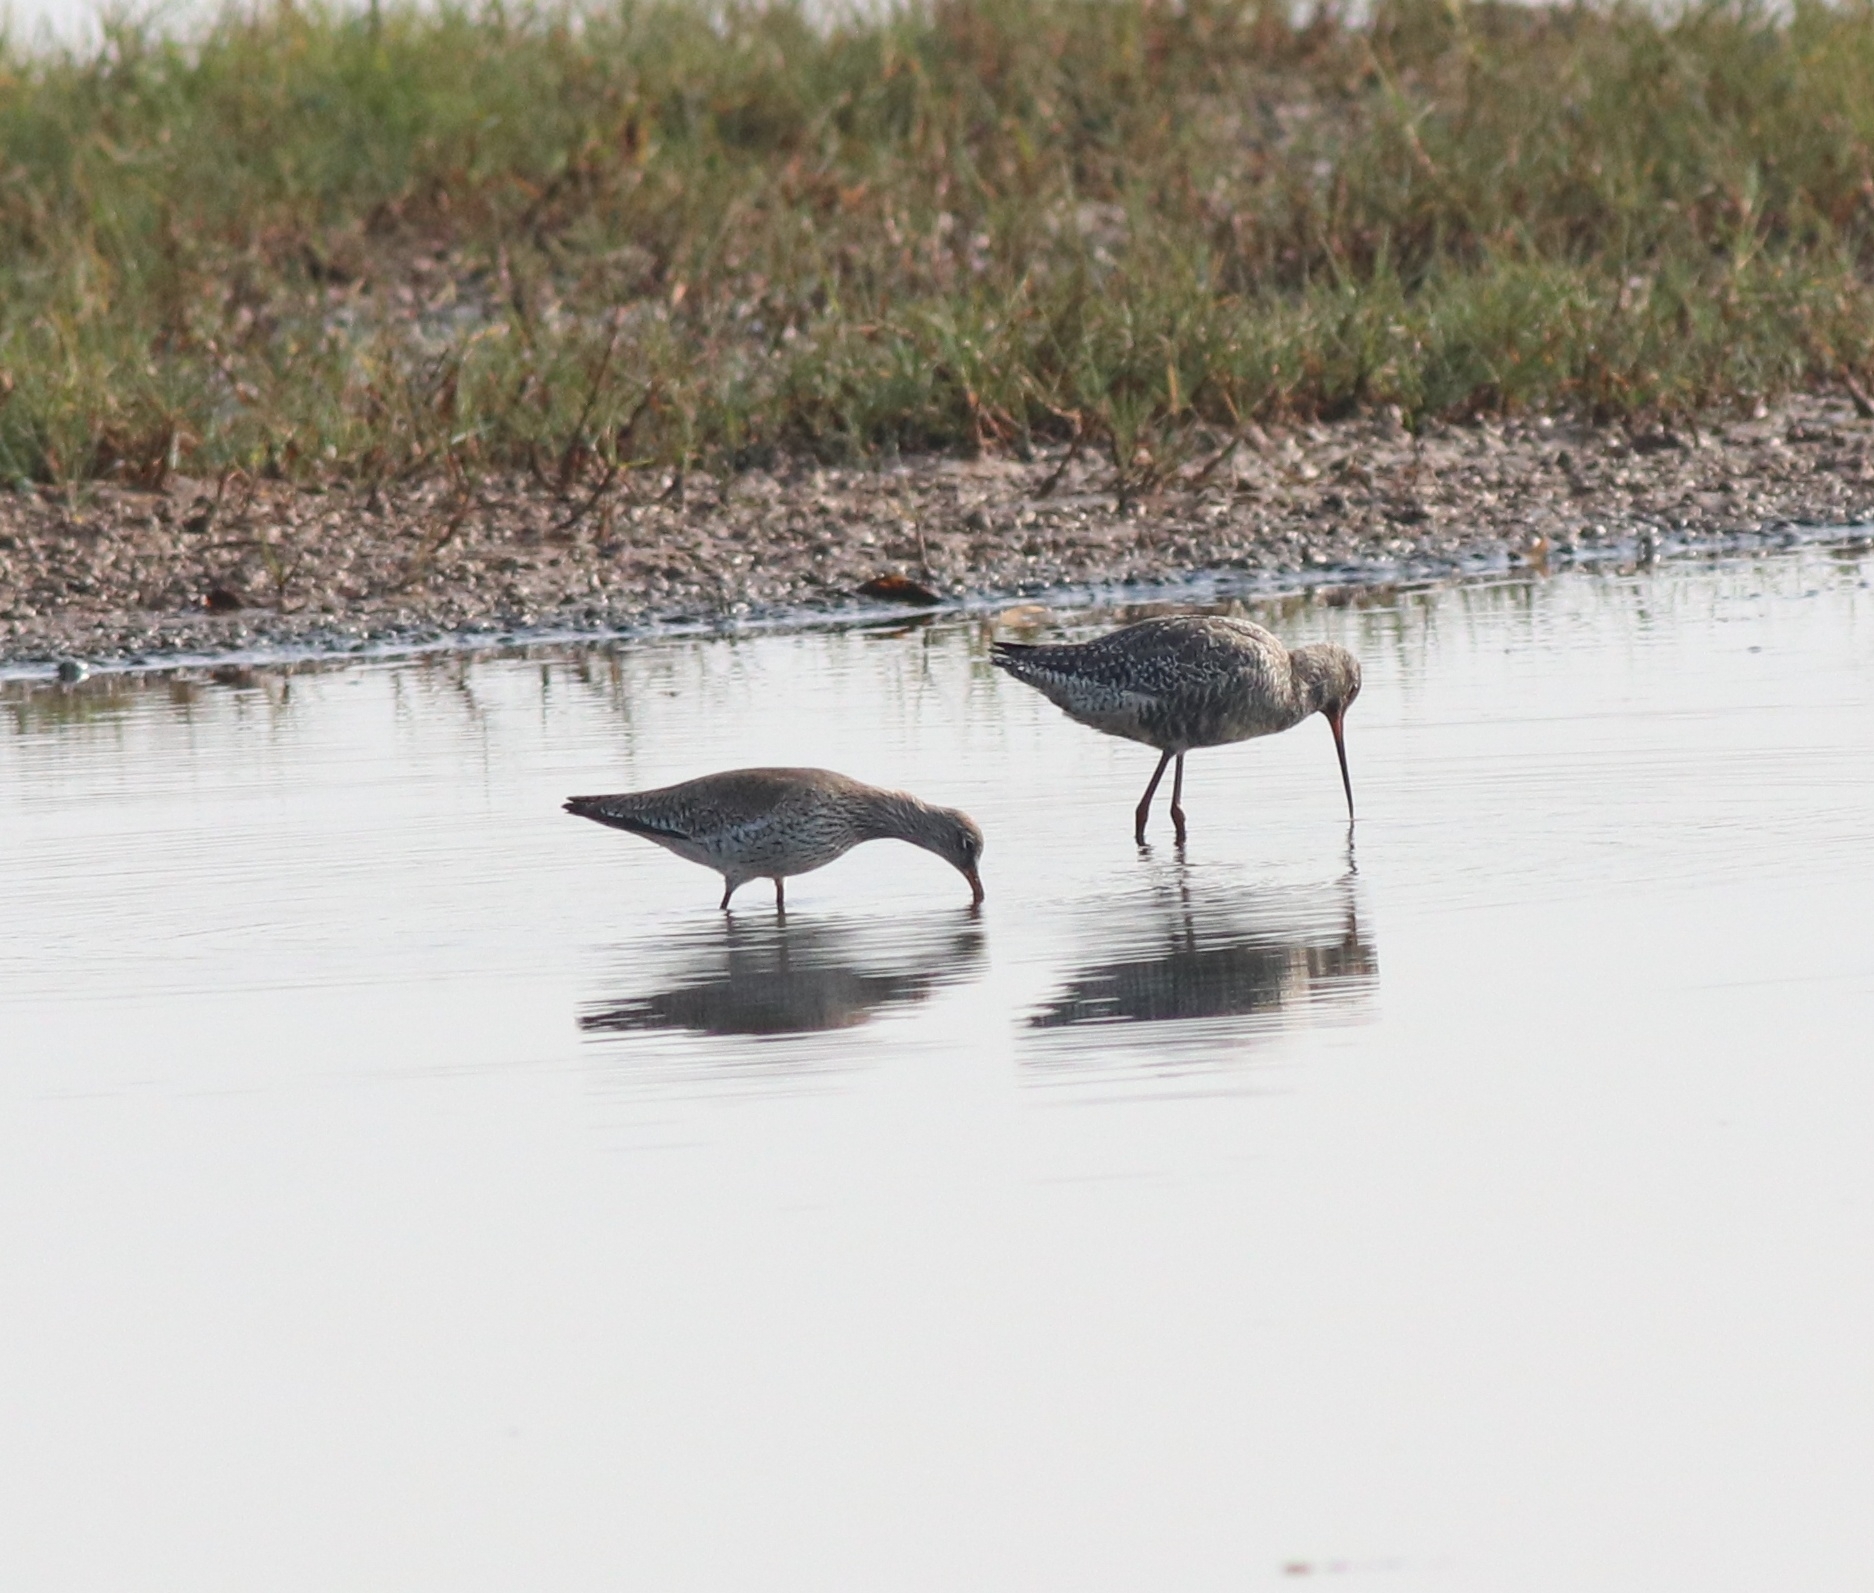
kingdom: Animalia
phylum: Chordata
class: Aves
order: Charadriiformes
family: Scolopacidae
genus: Tringa
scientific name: Tringa totanus
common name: Common redshank
